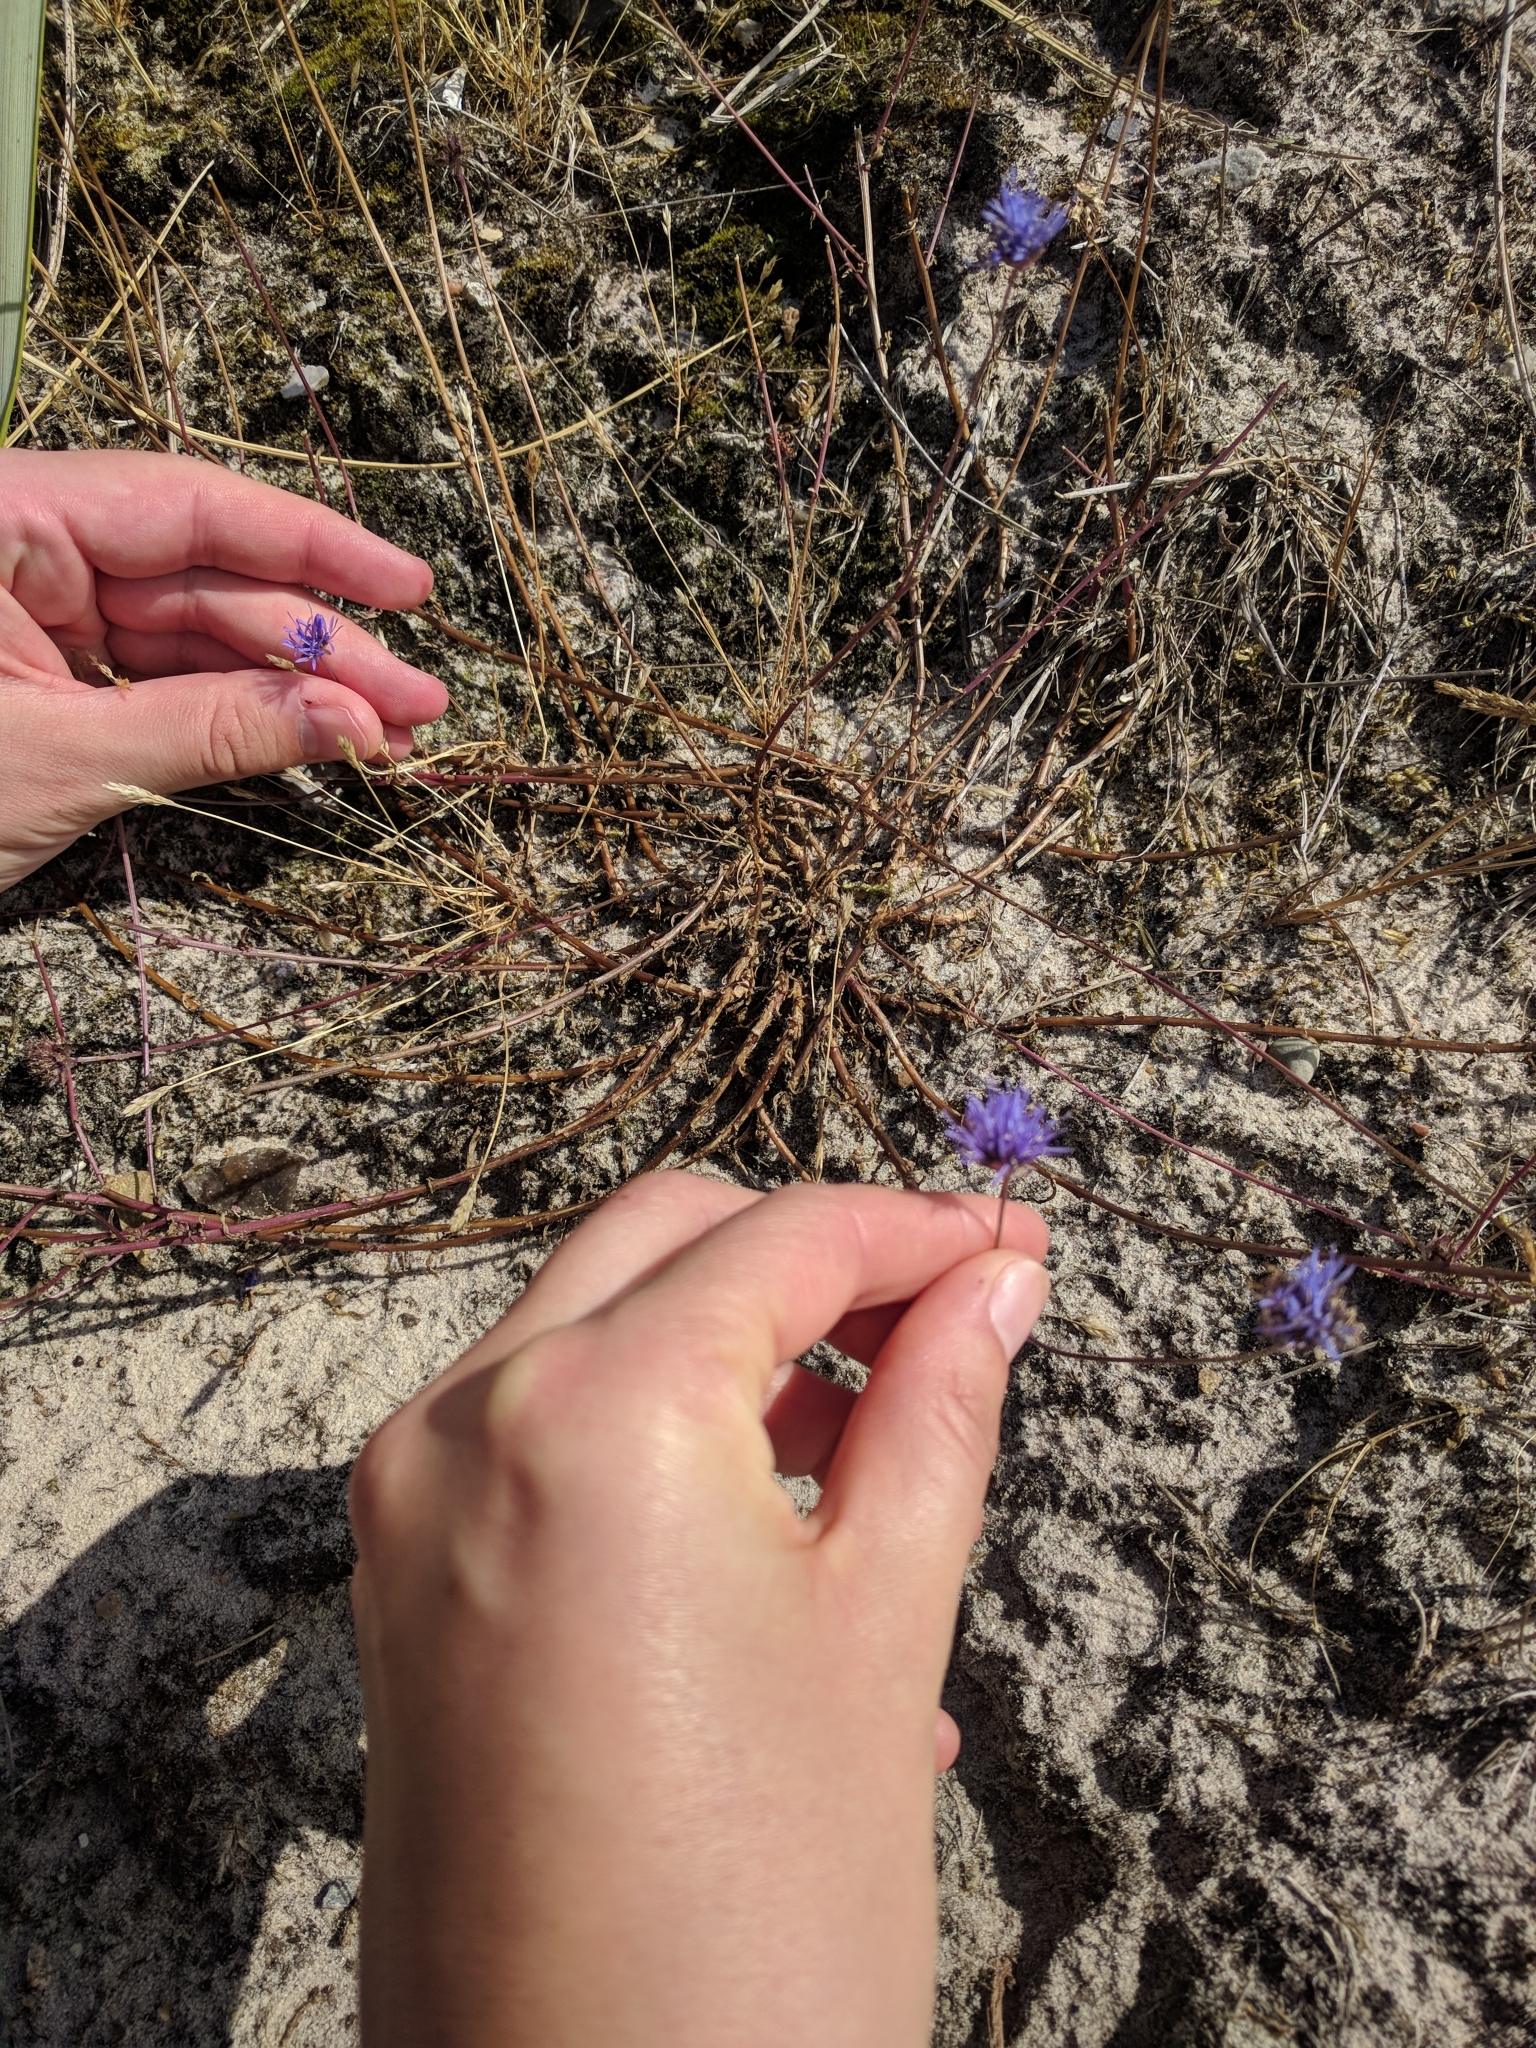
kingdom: Plantae
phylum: Tracheophyta
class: Magnoliopsida
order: Asterales
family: Campanulaceae
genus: Jasione
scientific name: Jasione montana
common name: Sheep's-bit
